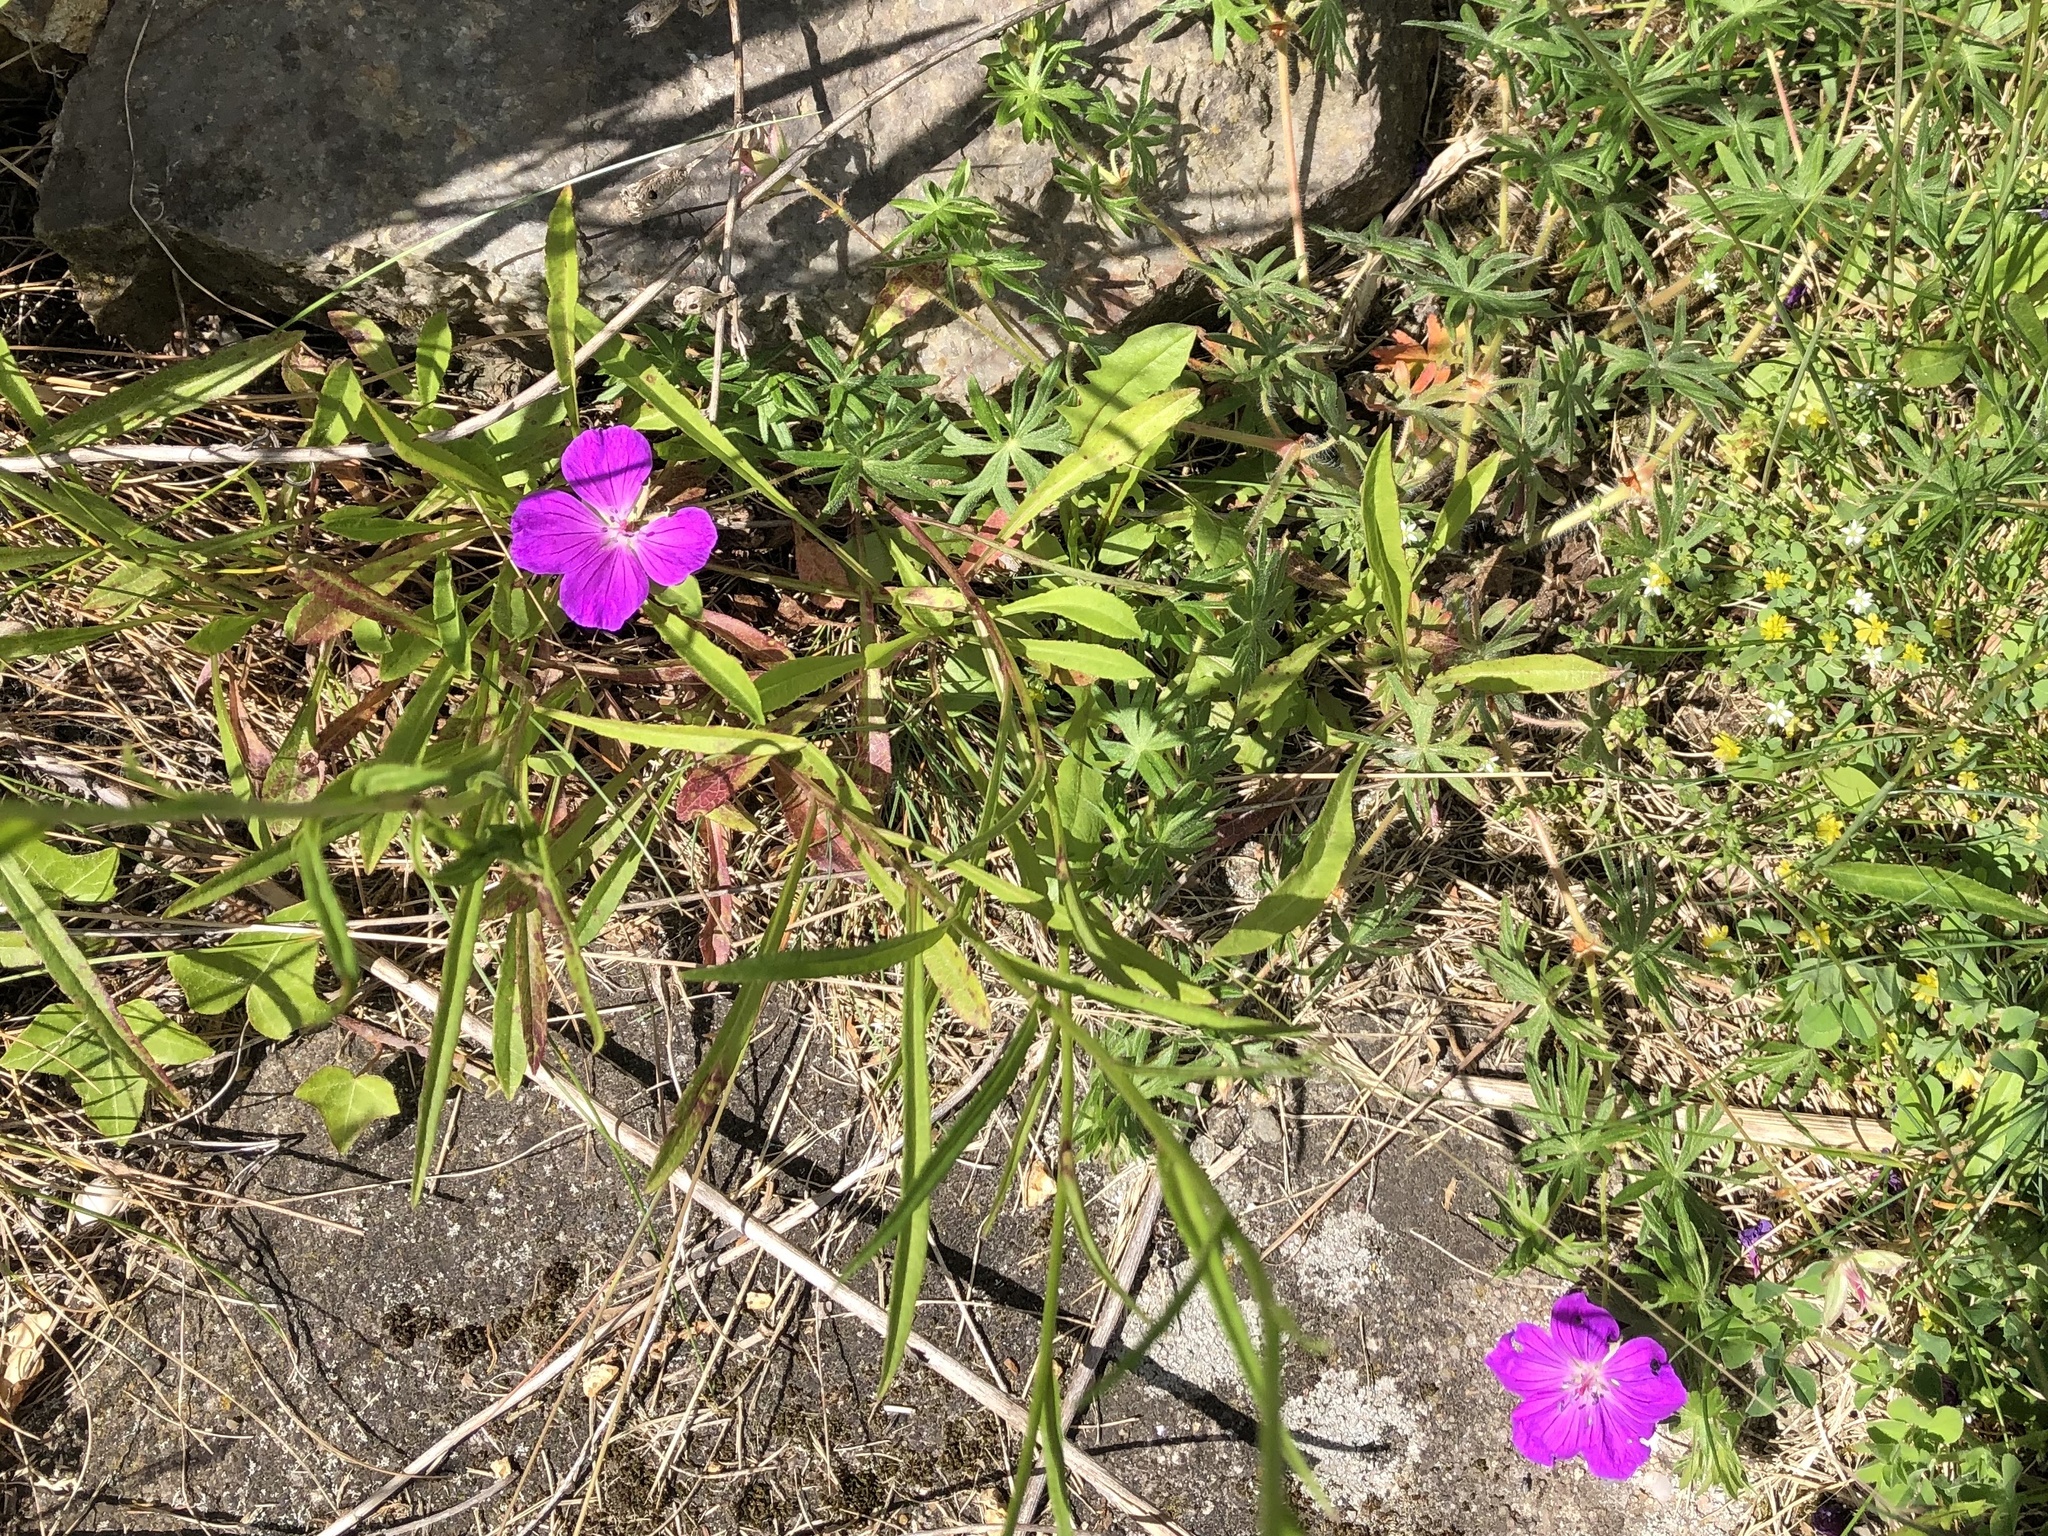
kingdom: Plantae
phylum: Tracheophyta
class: Magnoliopsida
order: Geraniales
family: Geraniaceae
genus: Geranium
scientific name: Geranium sanguineum
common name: Bloody crane's-bill
